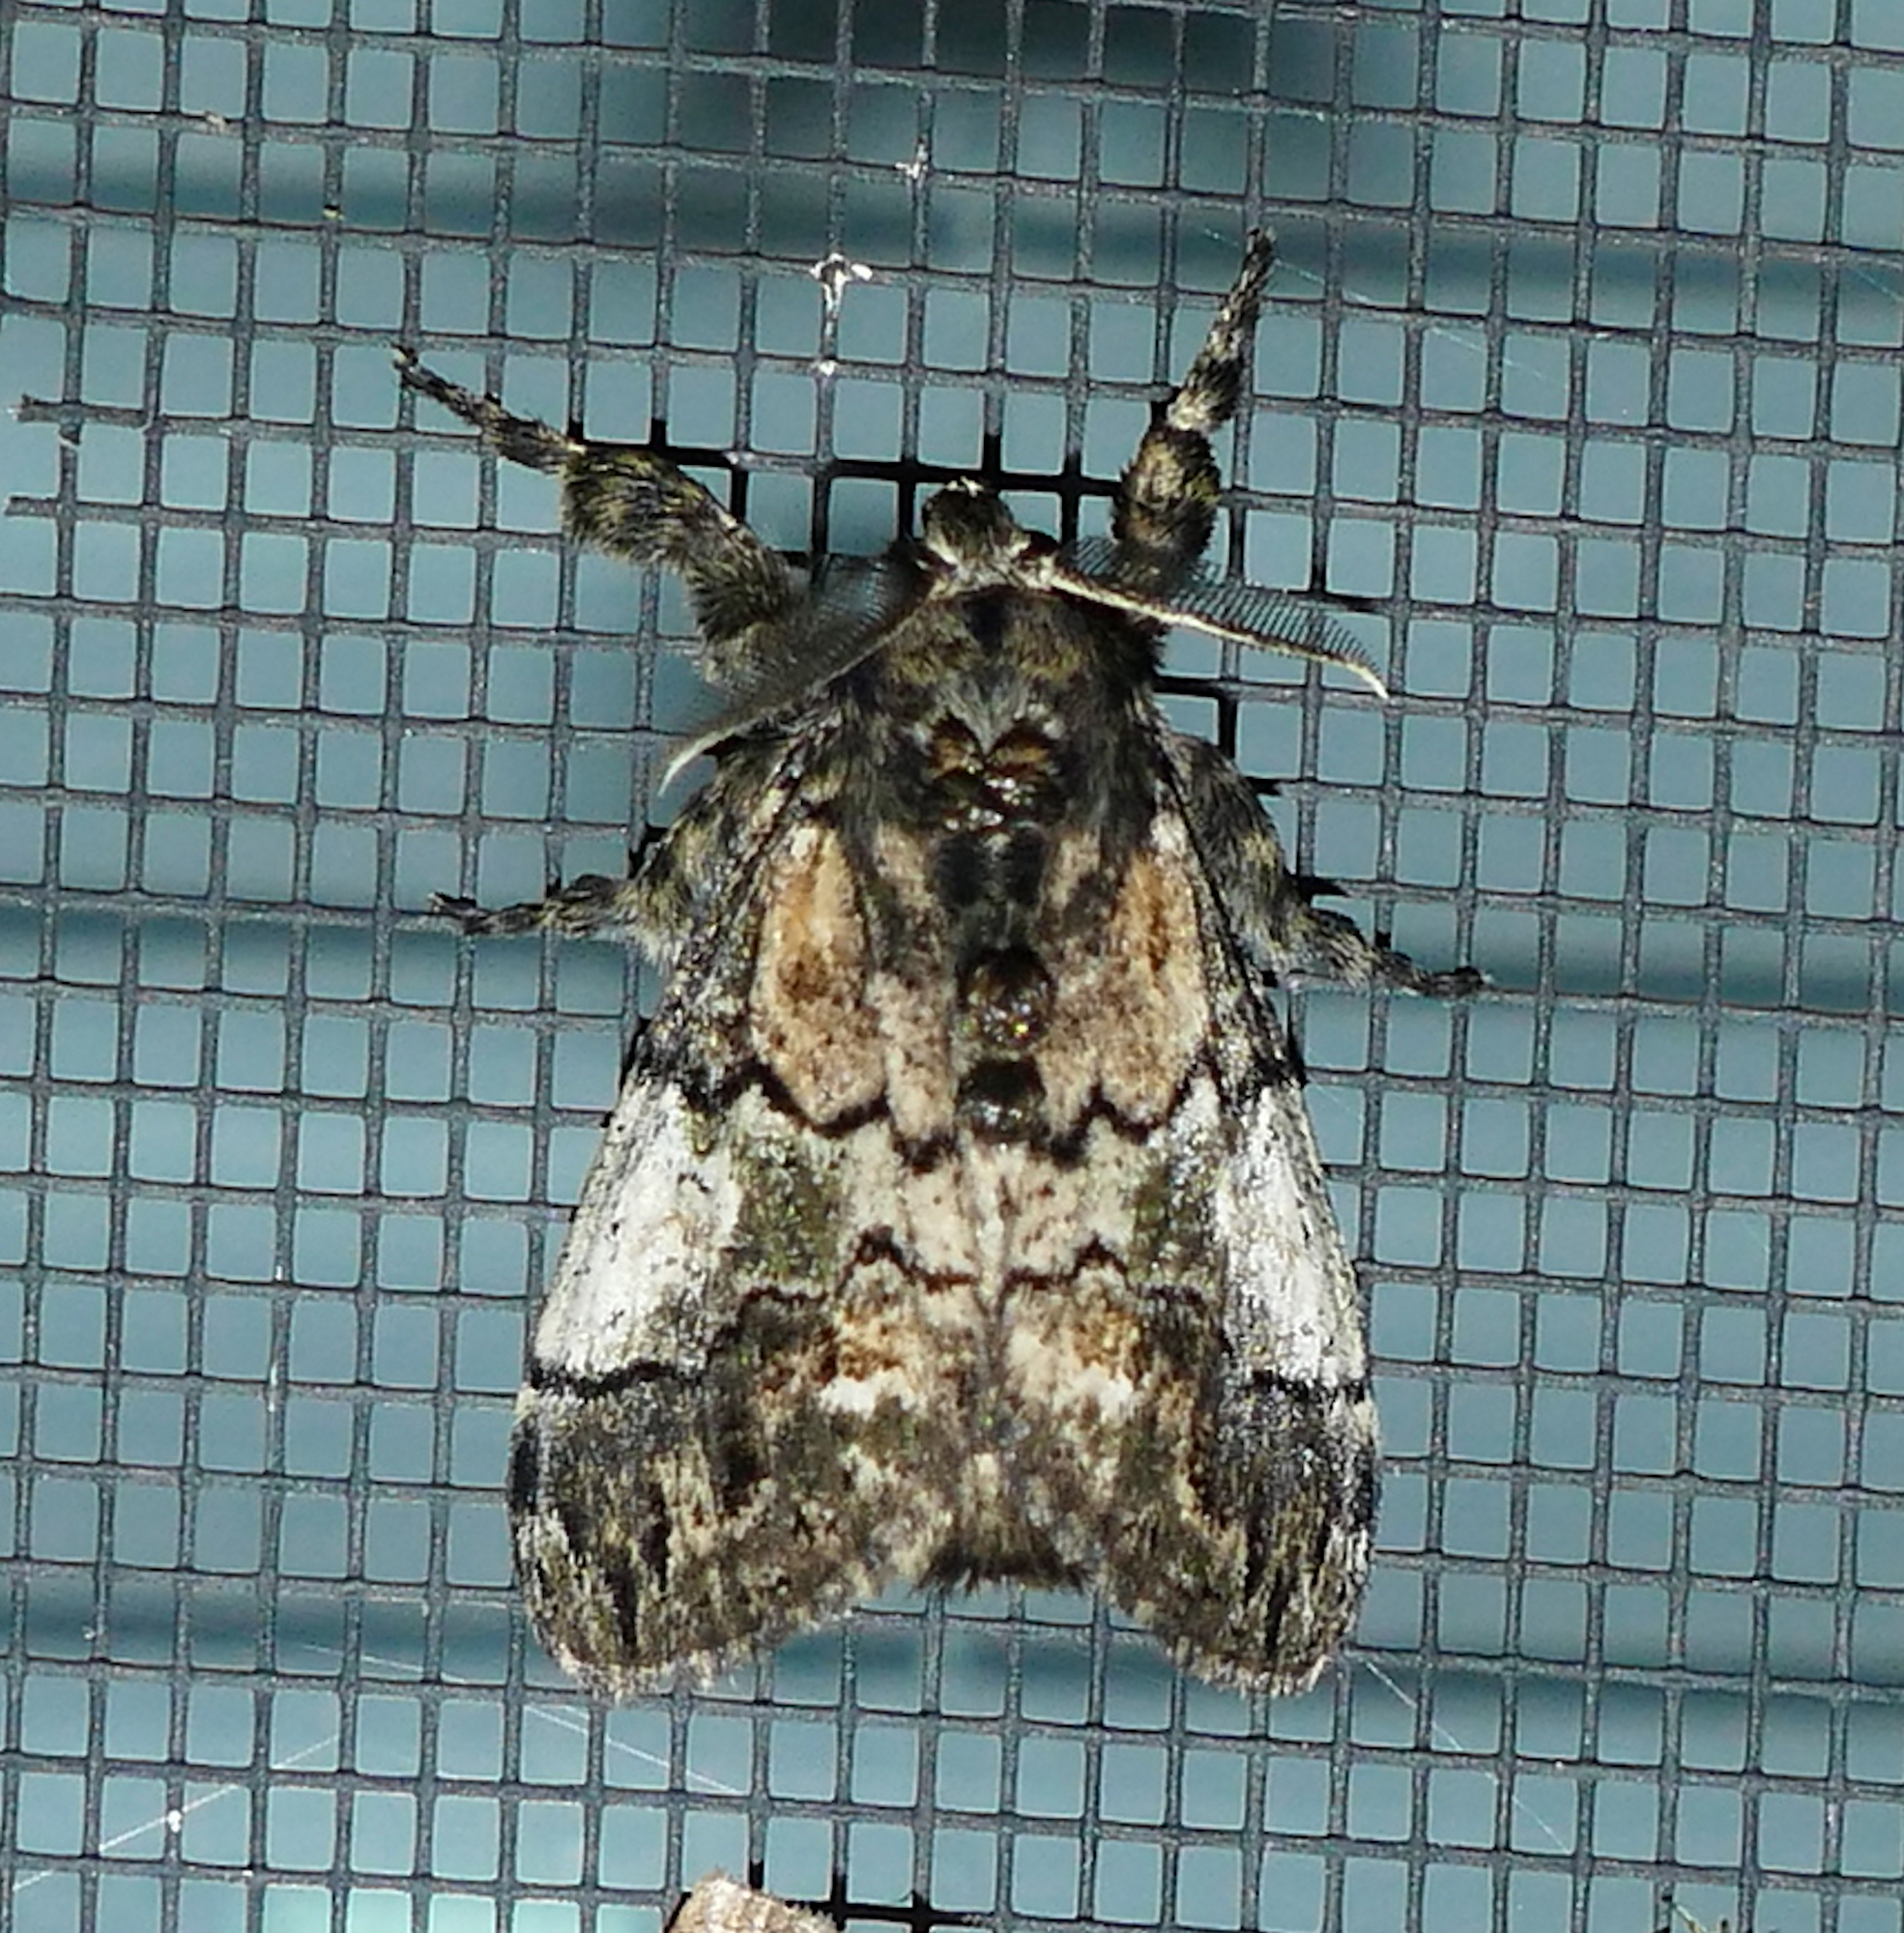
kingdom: Animalia
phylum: Arthropoda
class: Insecta
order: Lepidoptera
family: Erebidae
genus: Dasychira
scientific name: Dasychira meridionalis
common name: Southern tussock moth
